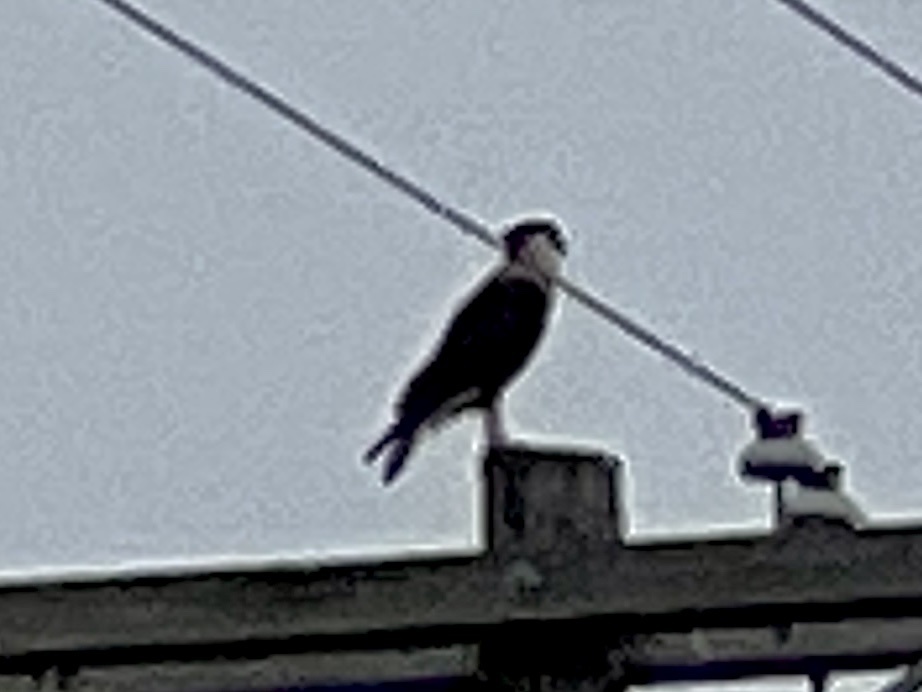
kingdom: Animalia
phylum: Chordata
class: Aves
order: Falconiformes
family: Falconidae
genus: Caracara
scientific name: Caracara plancus
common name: Southern caracara
